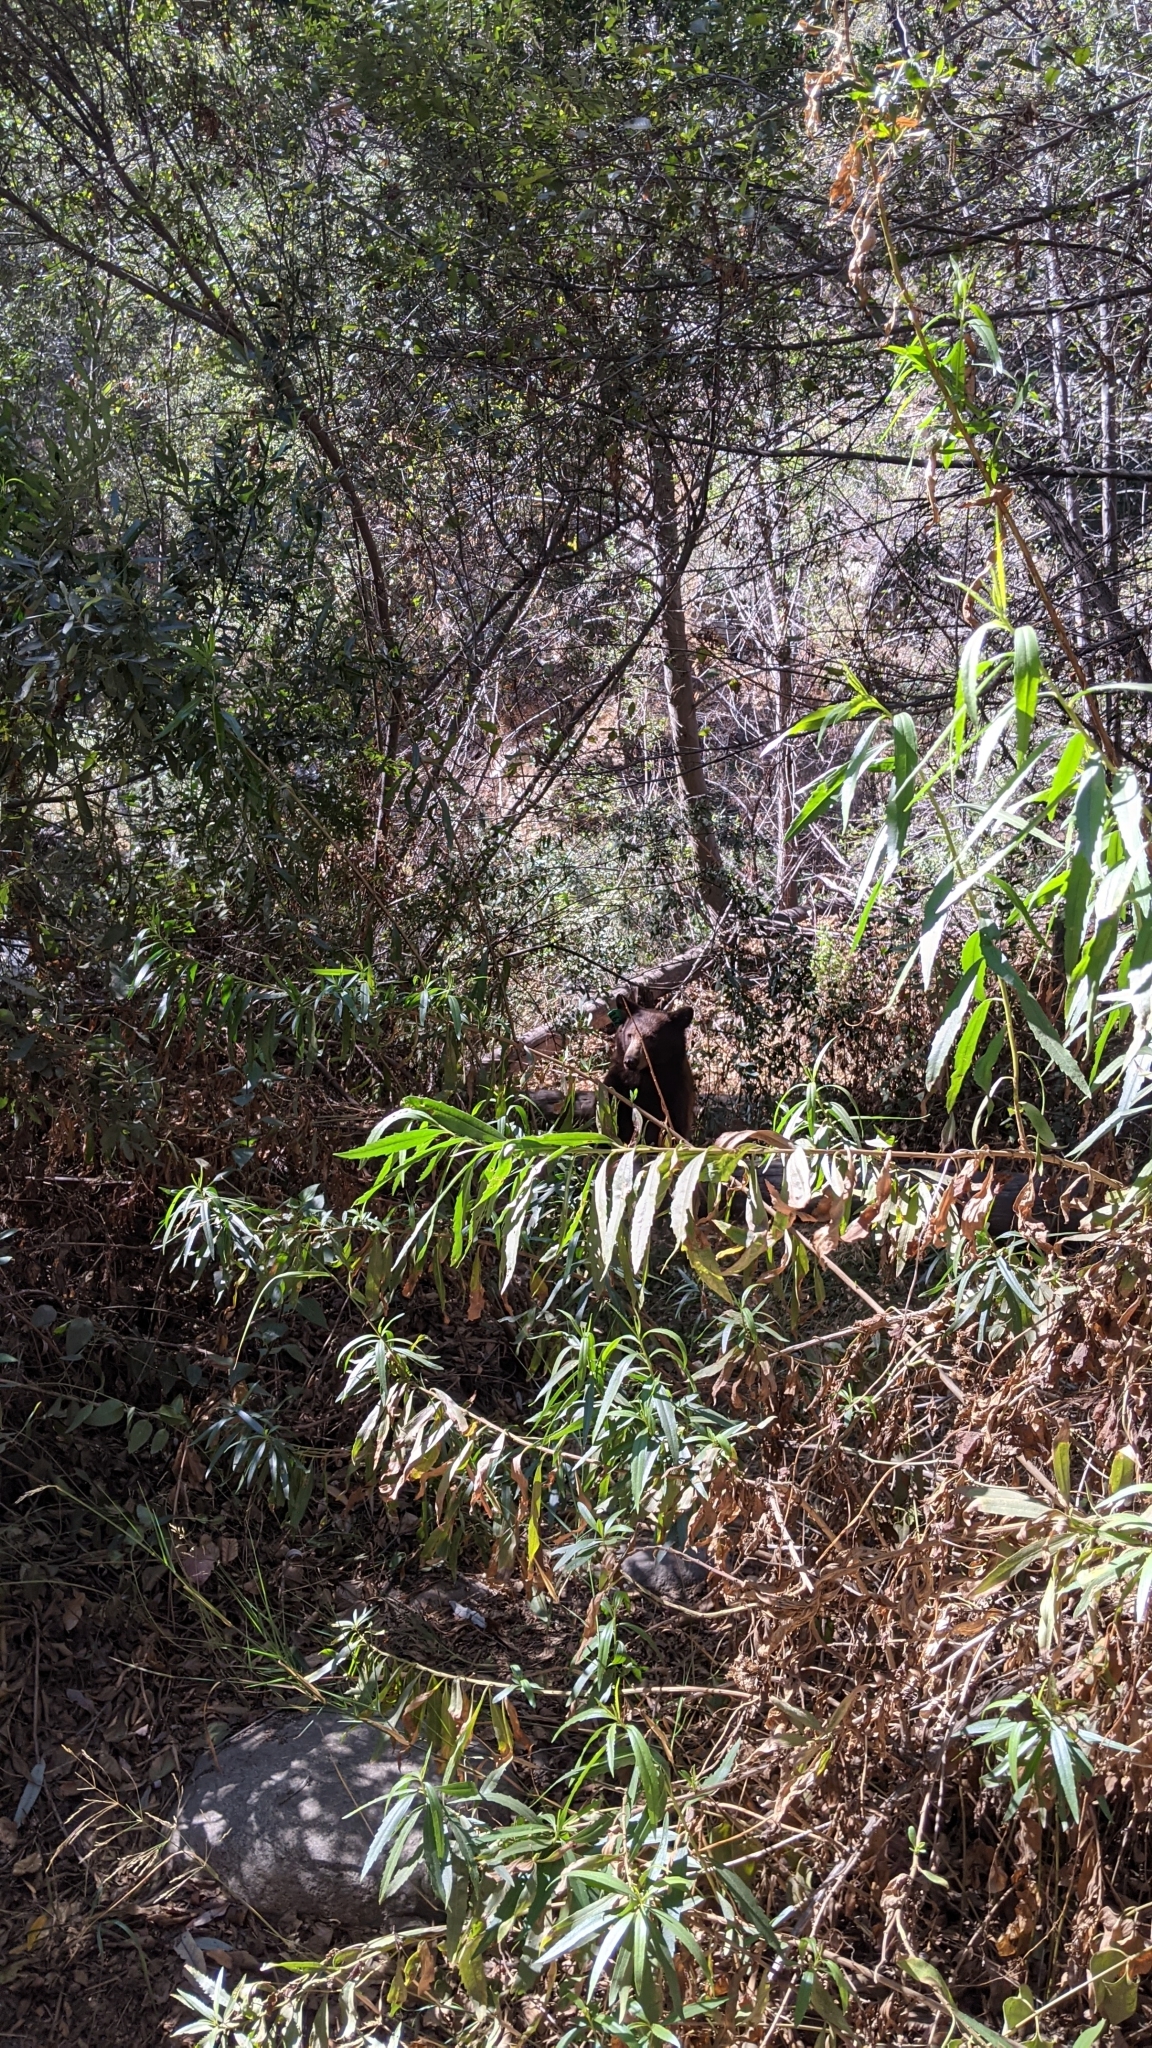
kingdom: Animalia
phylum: Chordata
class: Mammalia
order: Carnivora
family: Ursidae
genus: Ursus
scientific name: Ursus americanus
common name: American black bear
